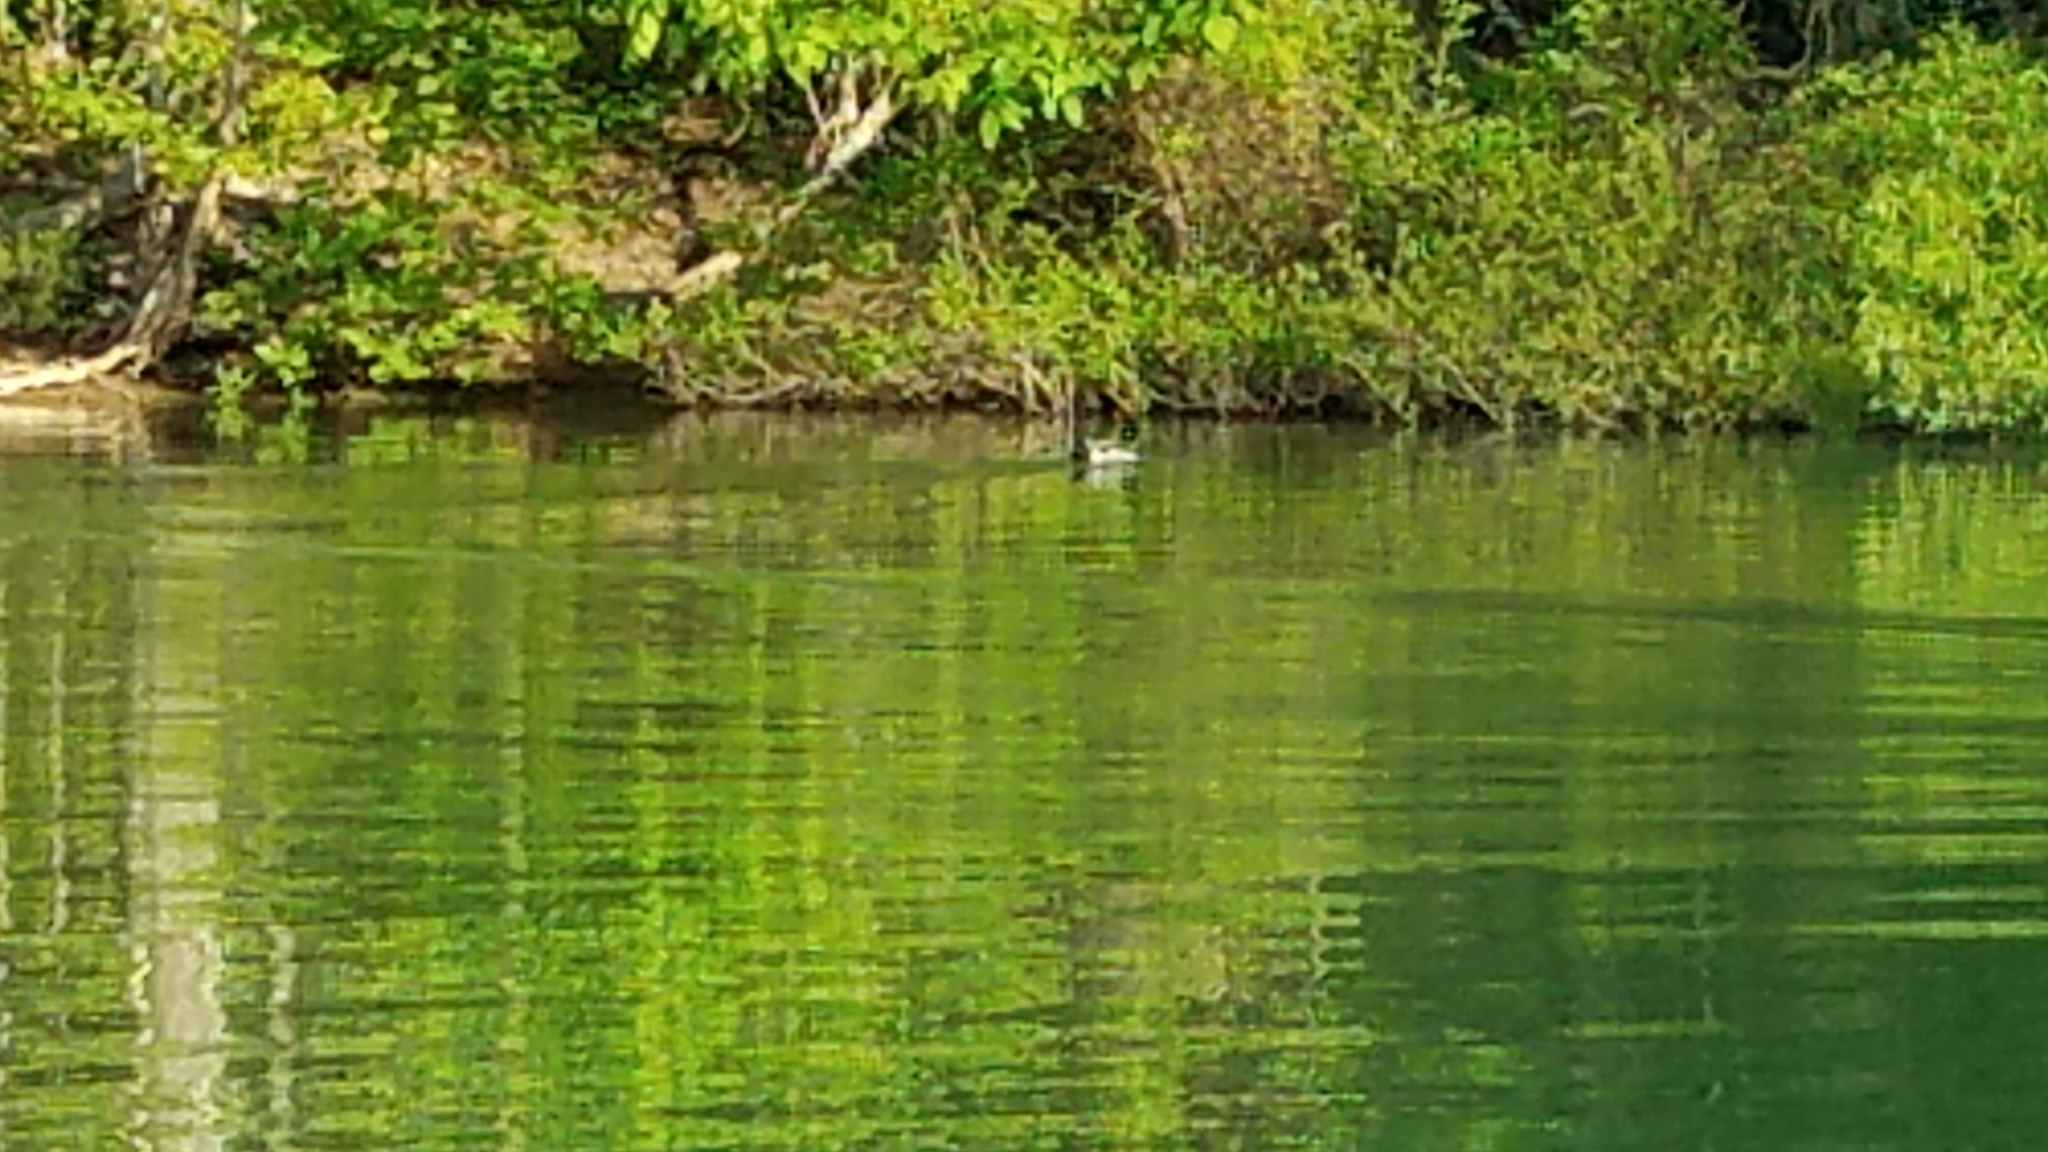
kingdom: Animalia
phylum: Chordata
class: Aves
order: Anseriformes
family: Anatidae
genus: Anas
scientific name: Anas platyrhynchos
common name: Mallard
